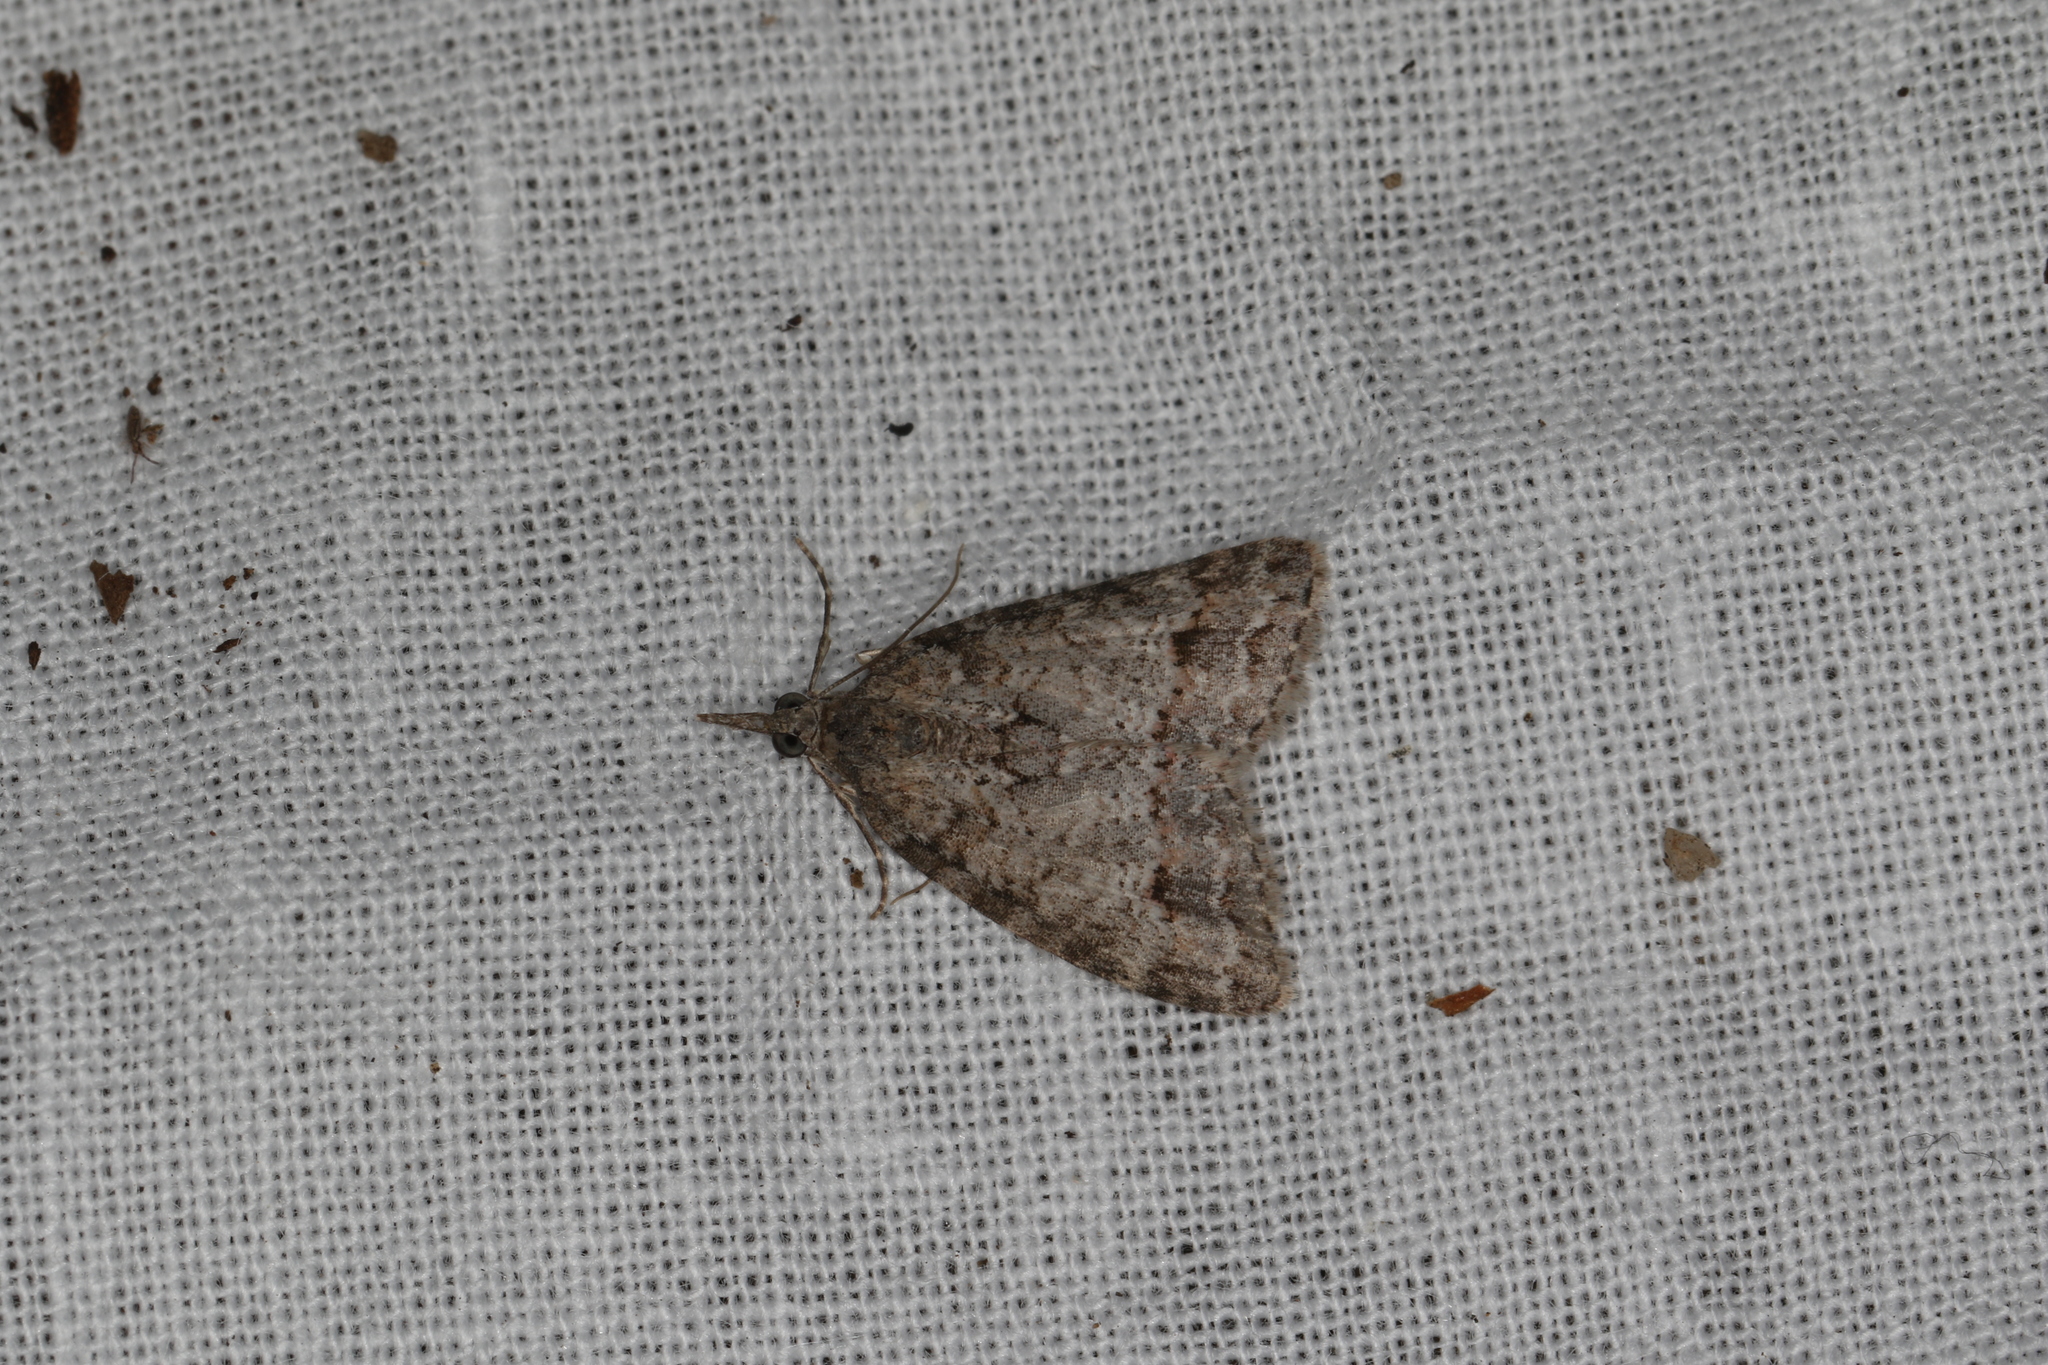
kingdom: Animalia
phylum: Arthropoda
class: Insecta
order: Lepidoptera
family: Geometridae
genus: Microdes
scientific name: Microdes villosata
